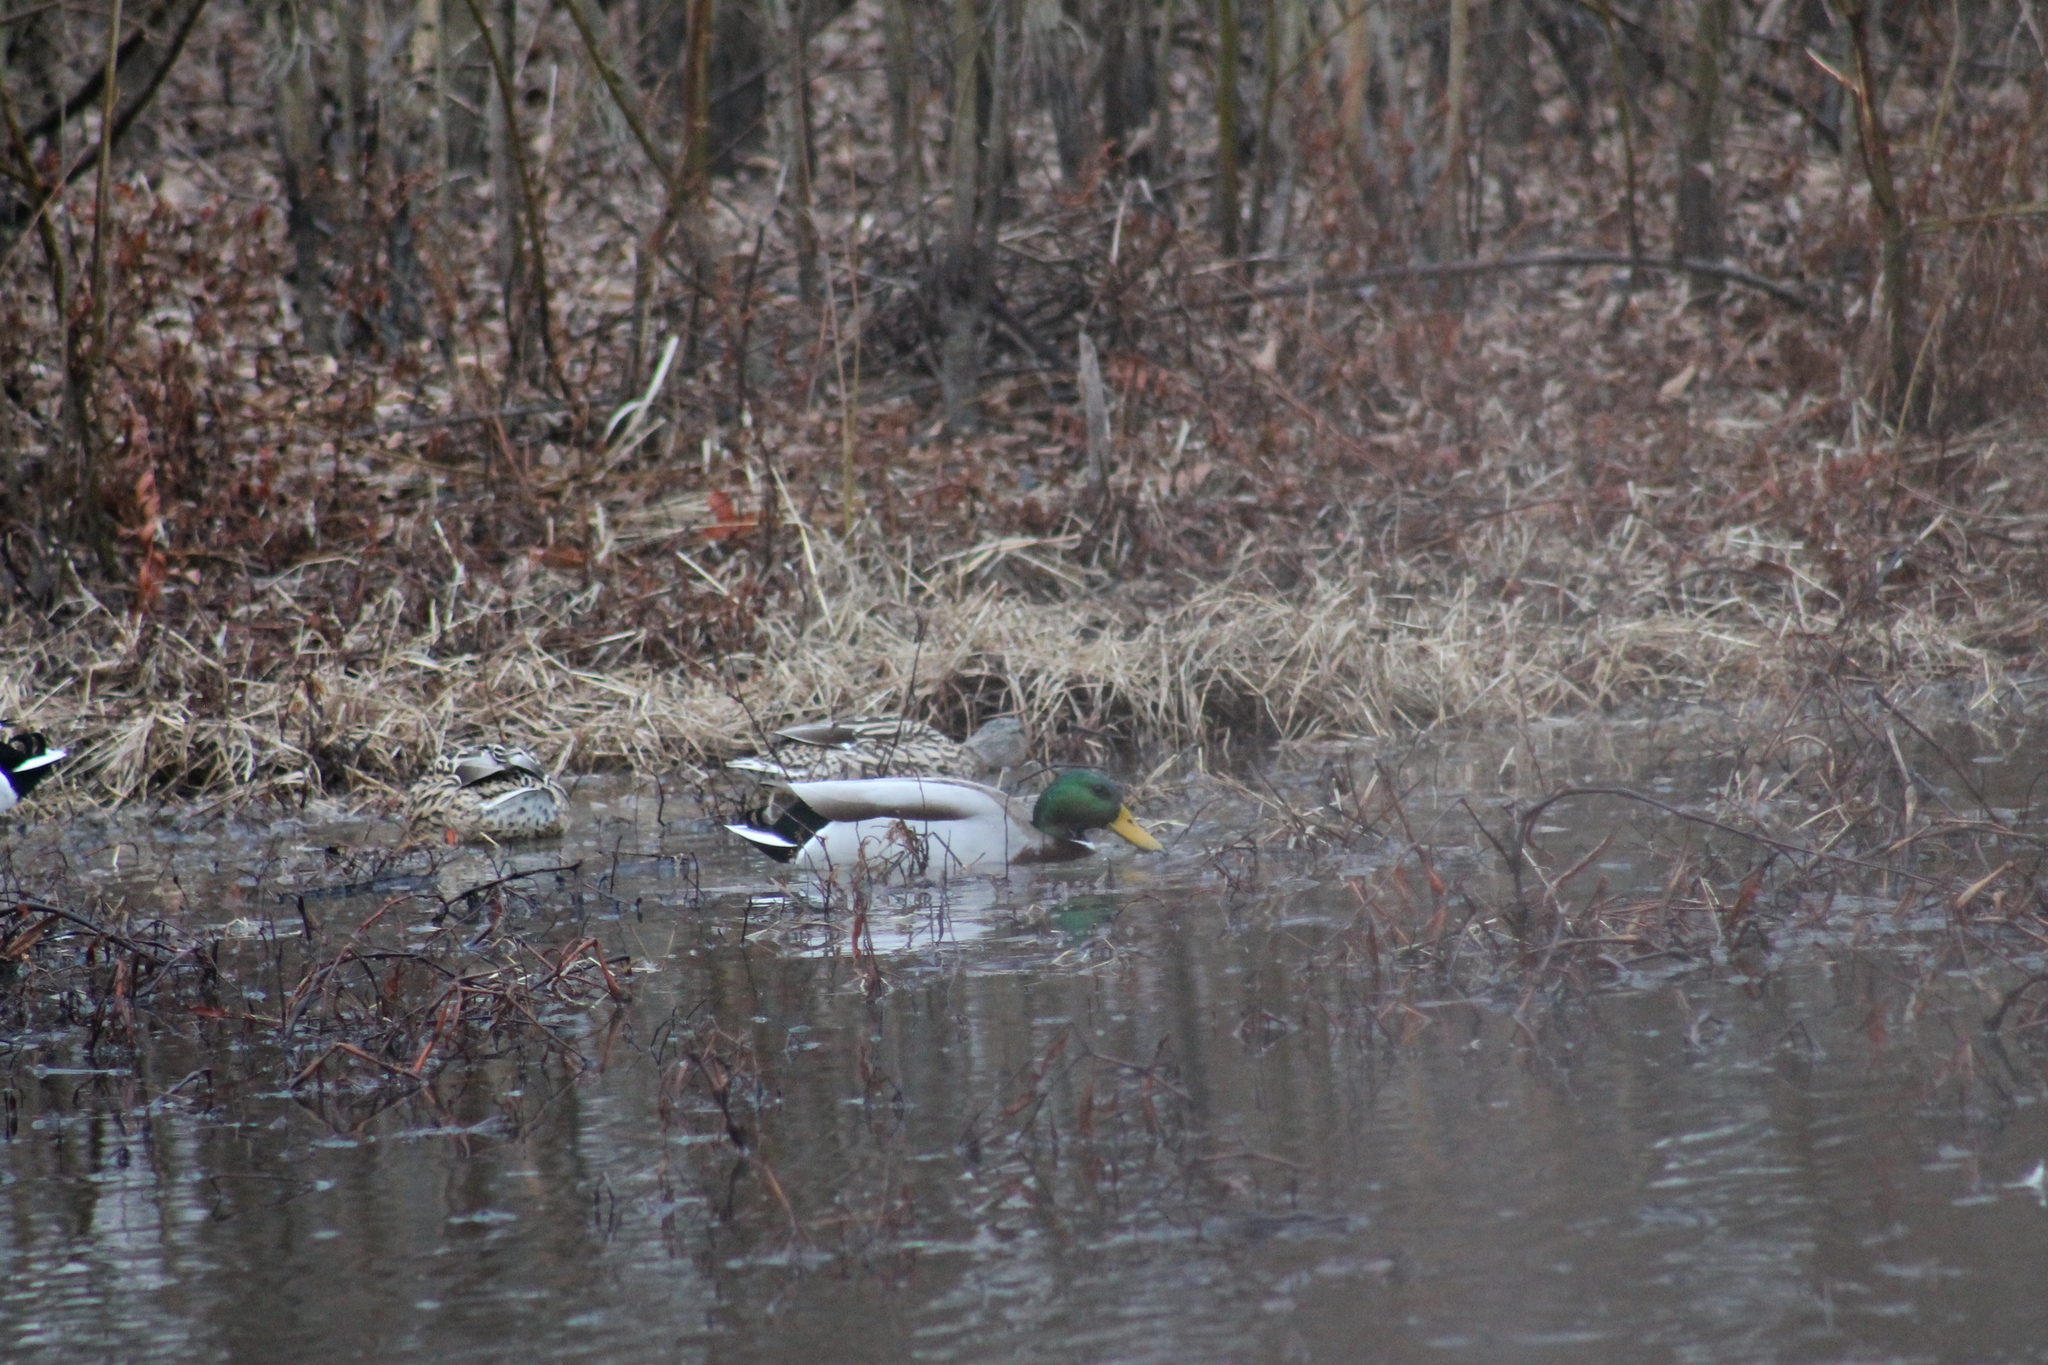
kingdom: Animalia
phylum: Chordata
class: Aves
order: Anseriformes
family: Anatidae
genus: Anas
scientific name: Anas platyrhynchos
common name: Mallard
